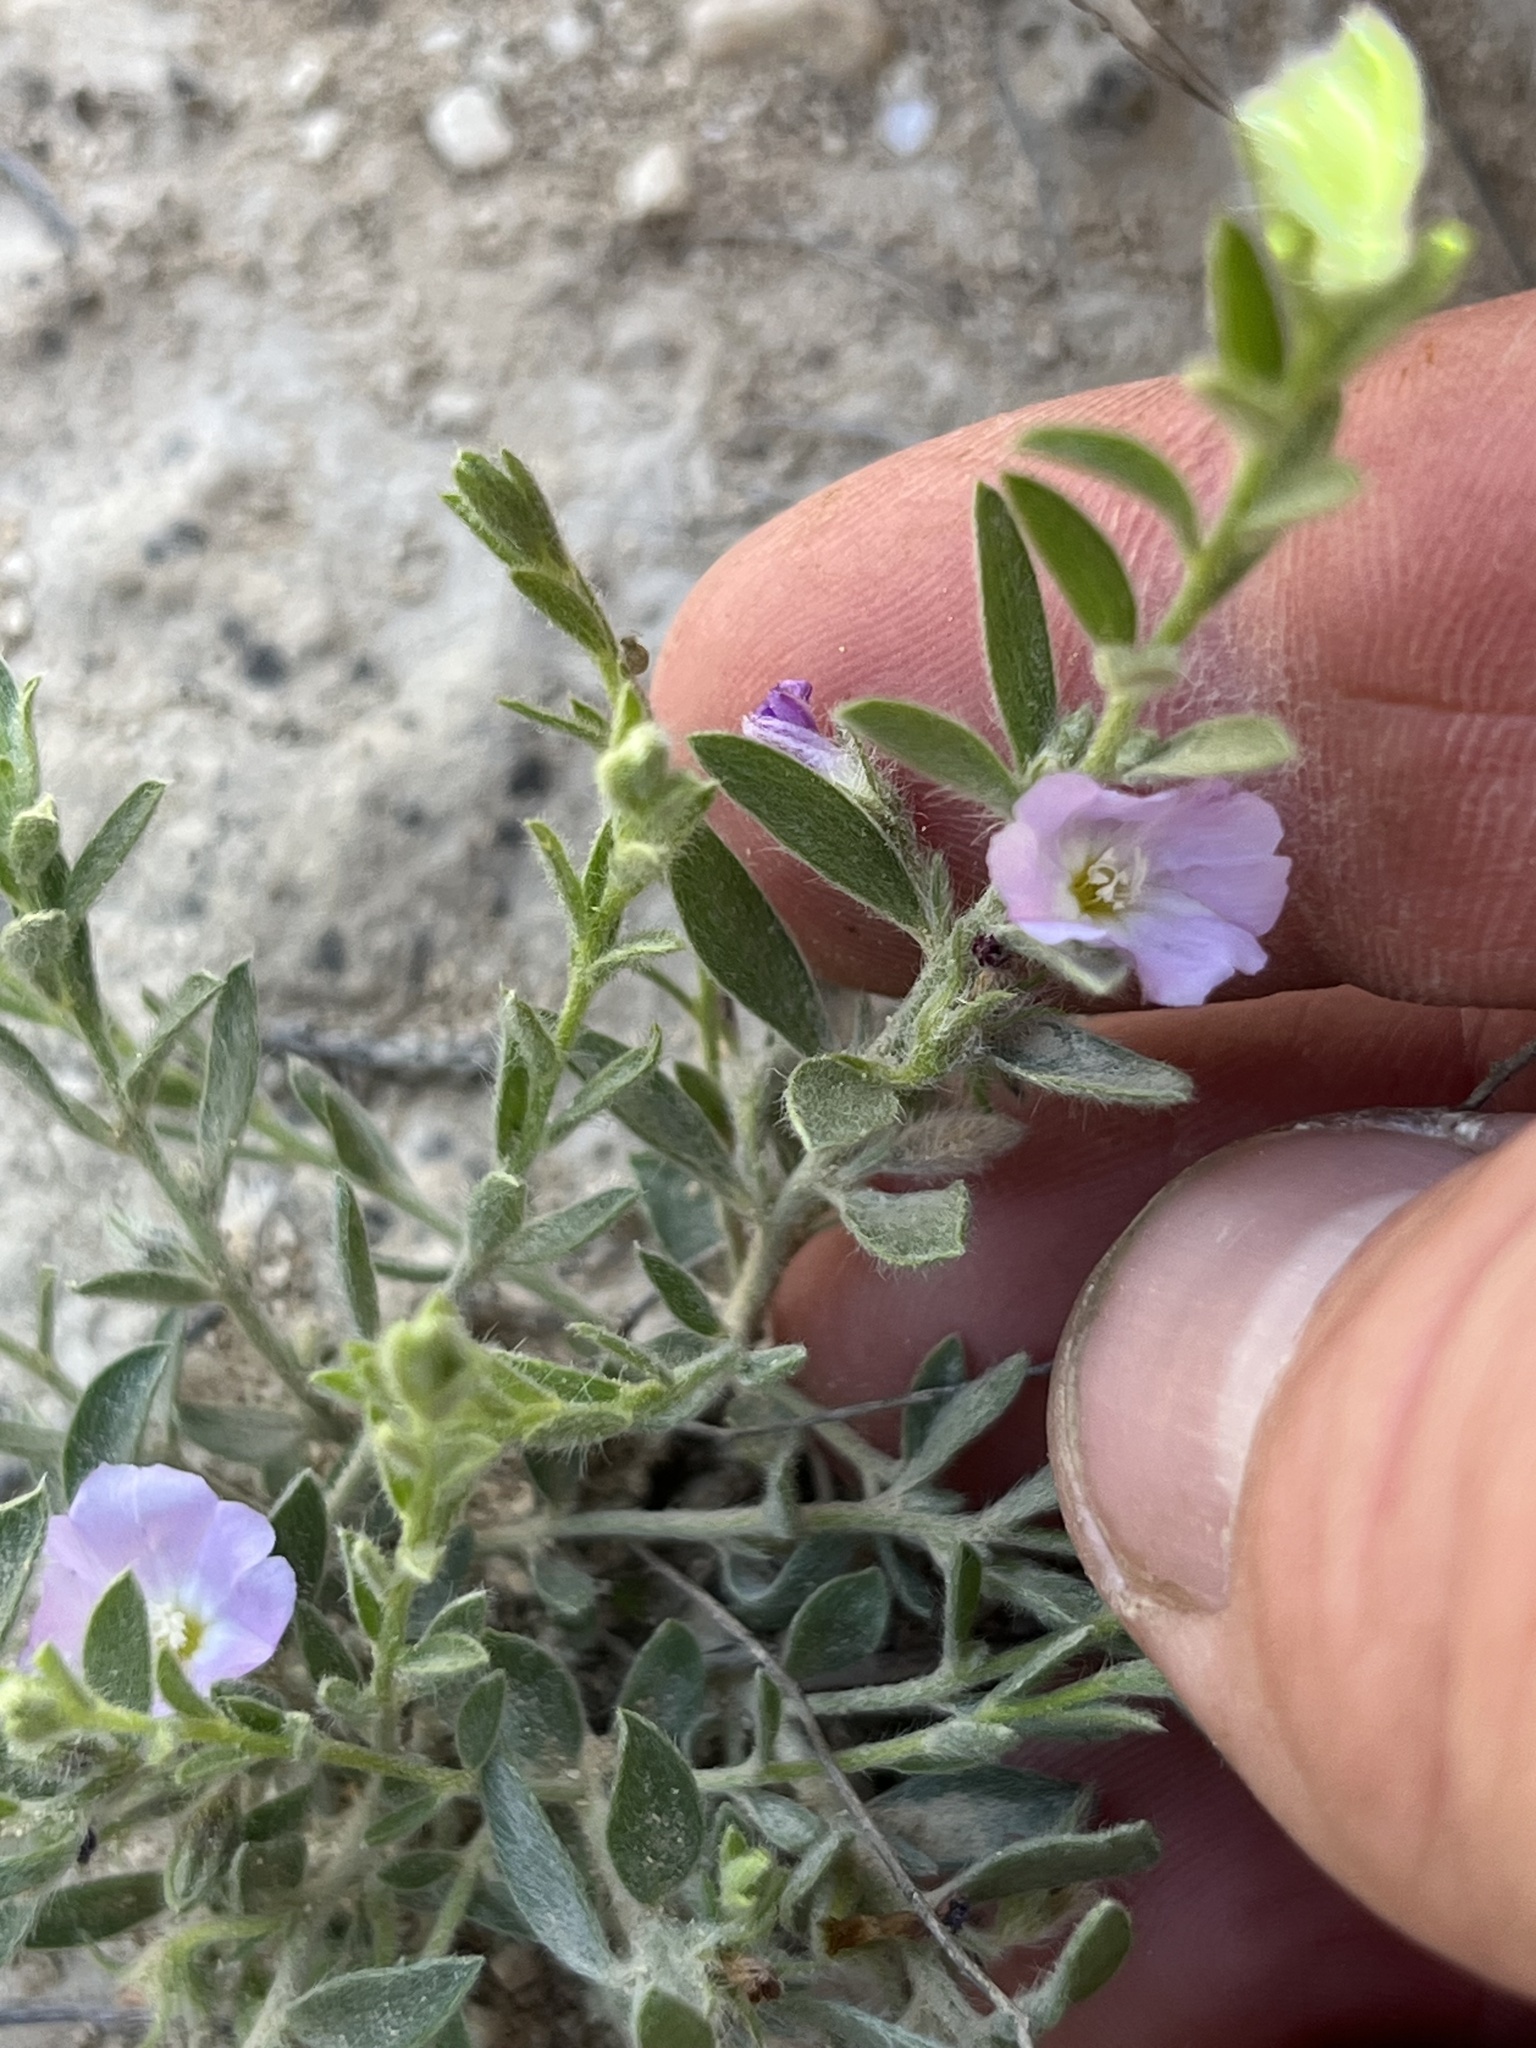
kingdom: Plantae
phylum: Tracheophyta
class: Magnoliopsida
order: Solanales
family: Convolvulaceae
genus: Evolvulus
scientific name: Evolvulus nuttallianus
